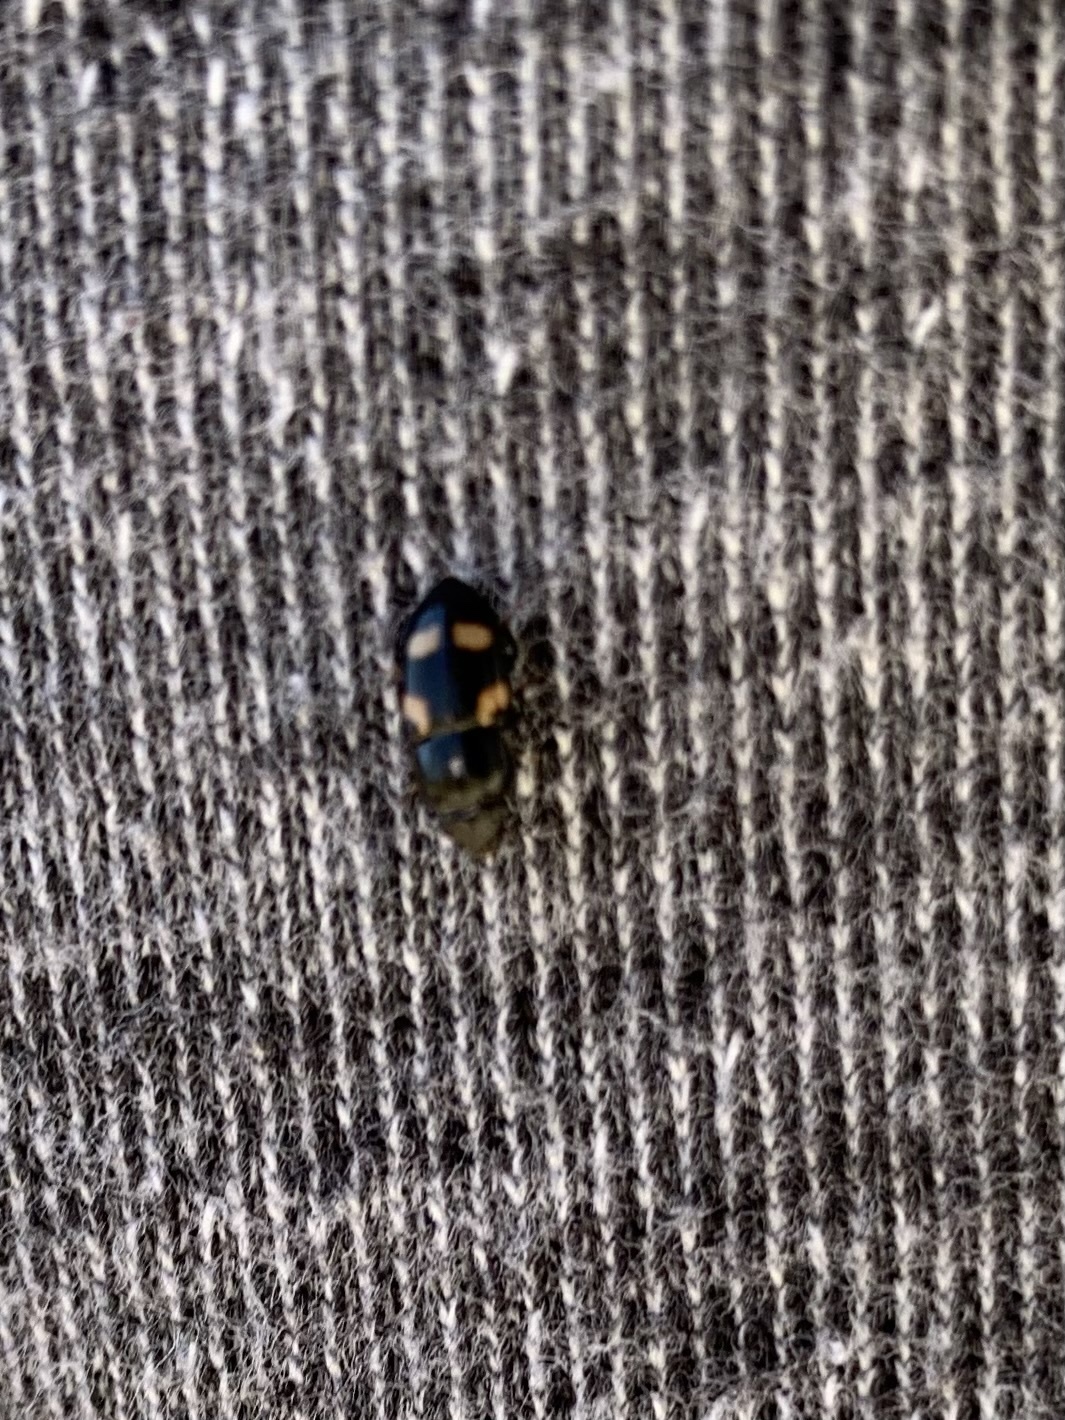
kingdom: Animalia
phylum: Arthropoda
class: Insecta
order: Coleoptera
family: Nitidulidae
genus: Glischrochilus
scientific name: Glischrochilus quadrisignatus
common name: Picnic beetle
